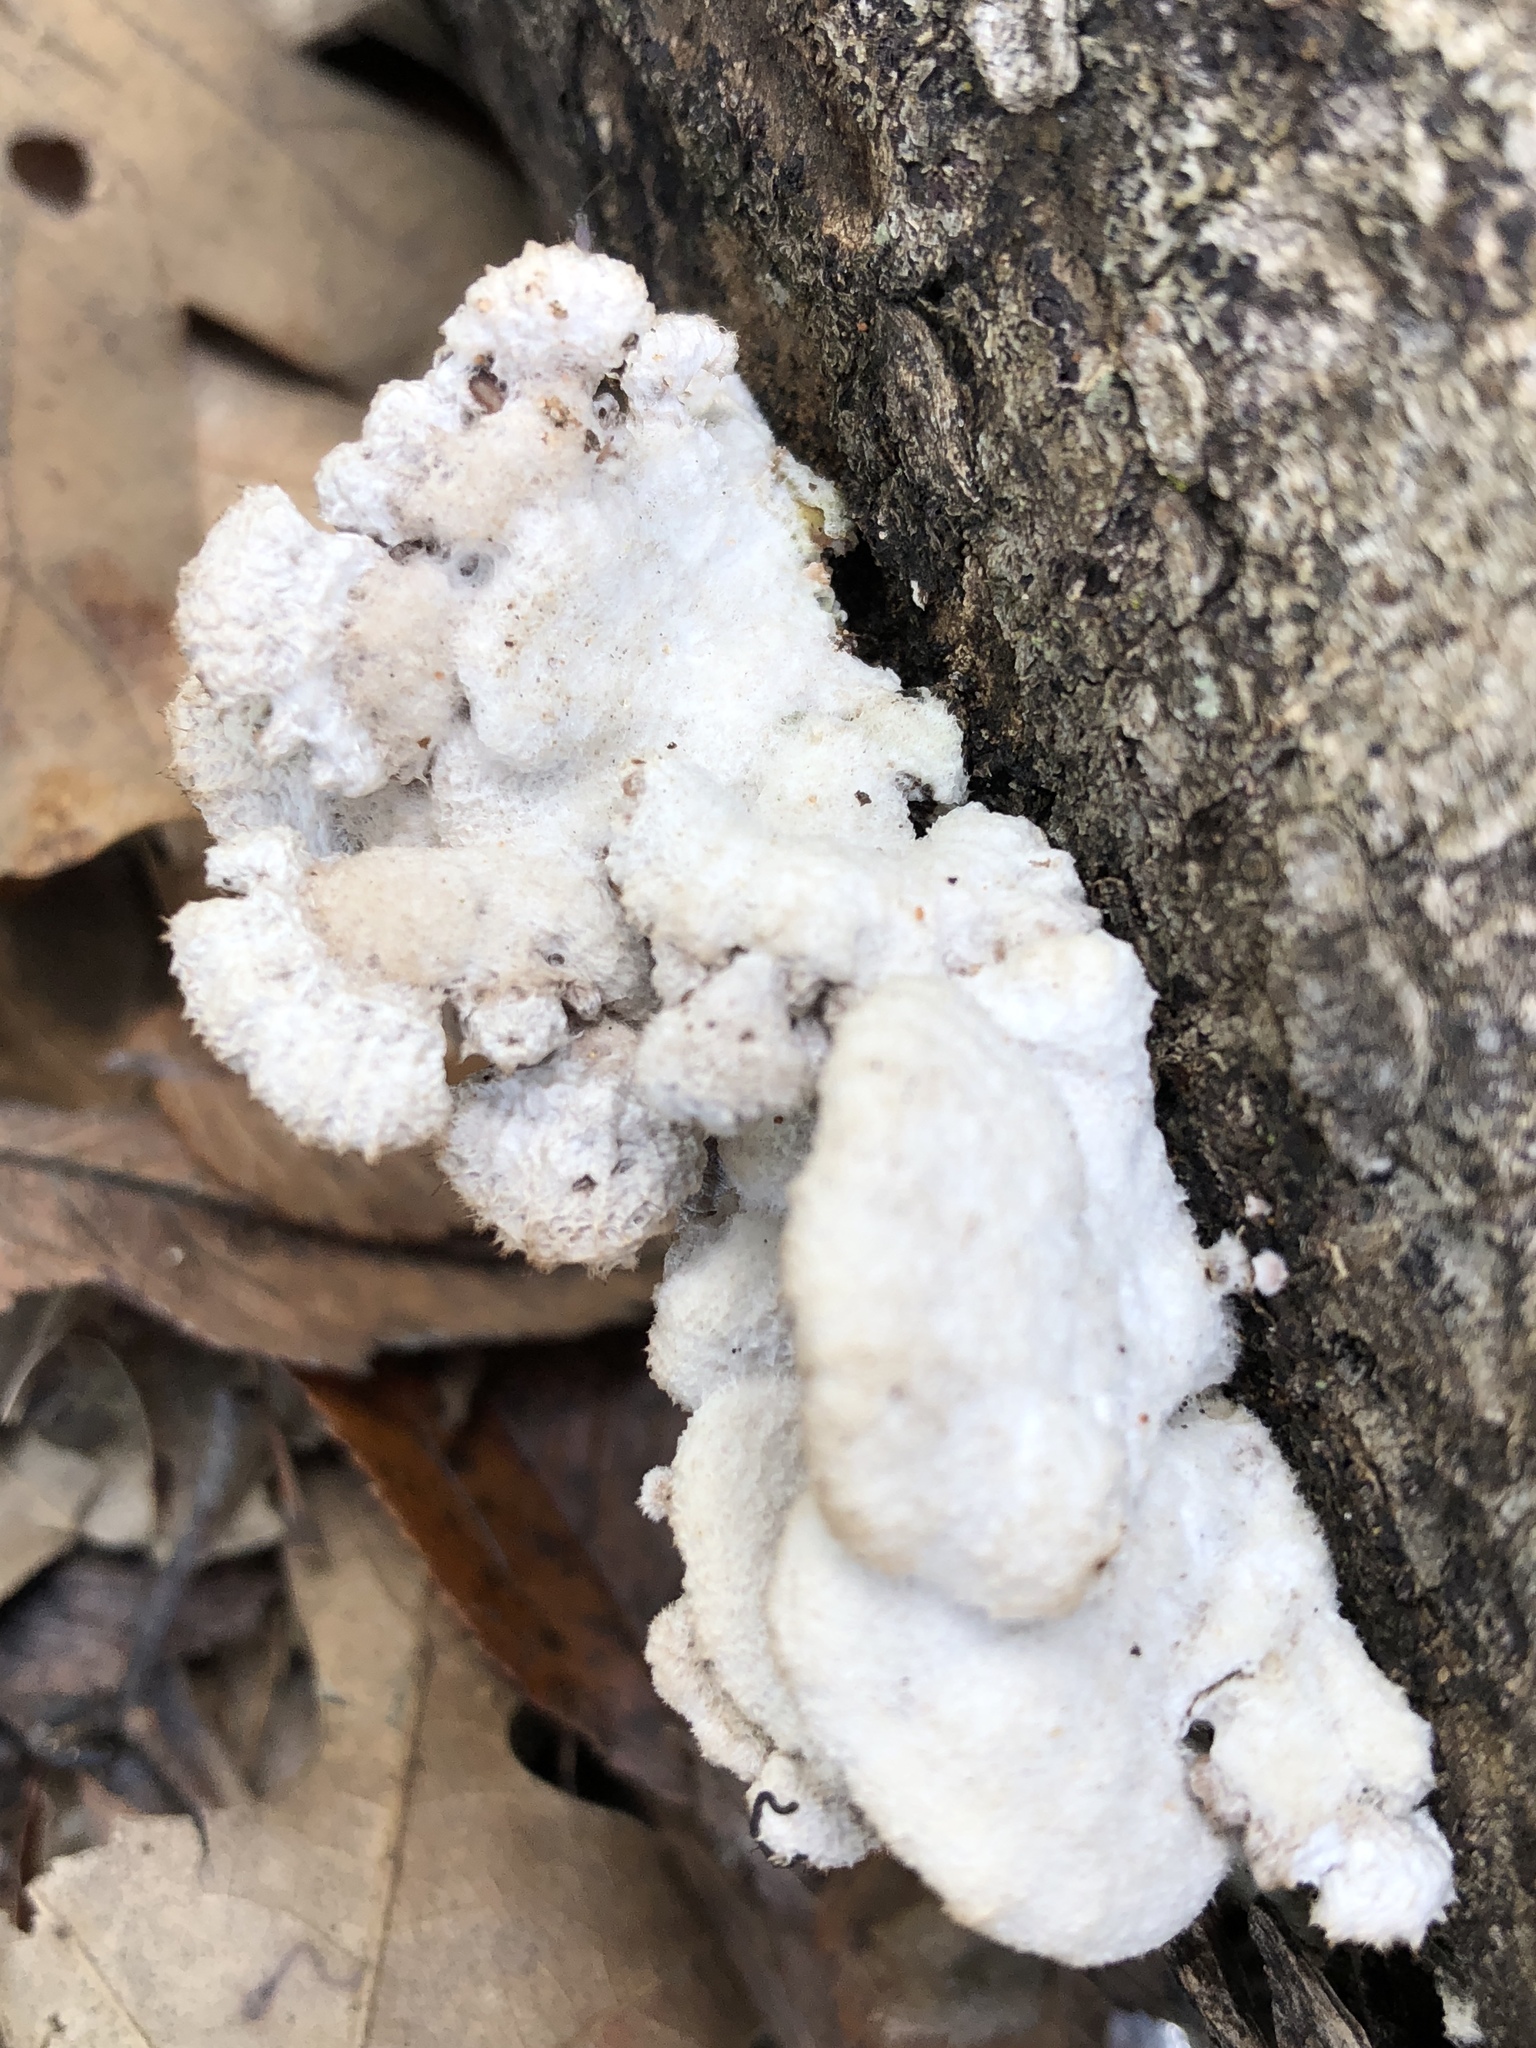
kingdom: Fungi
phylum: Basidiomycota
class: Agaricomycetes
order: Agaricales
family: Schizophyllaceae
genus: Schizophyllum
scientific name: Schizophyllum commune
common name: Common porecrust
